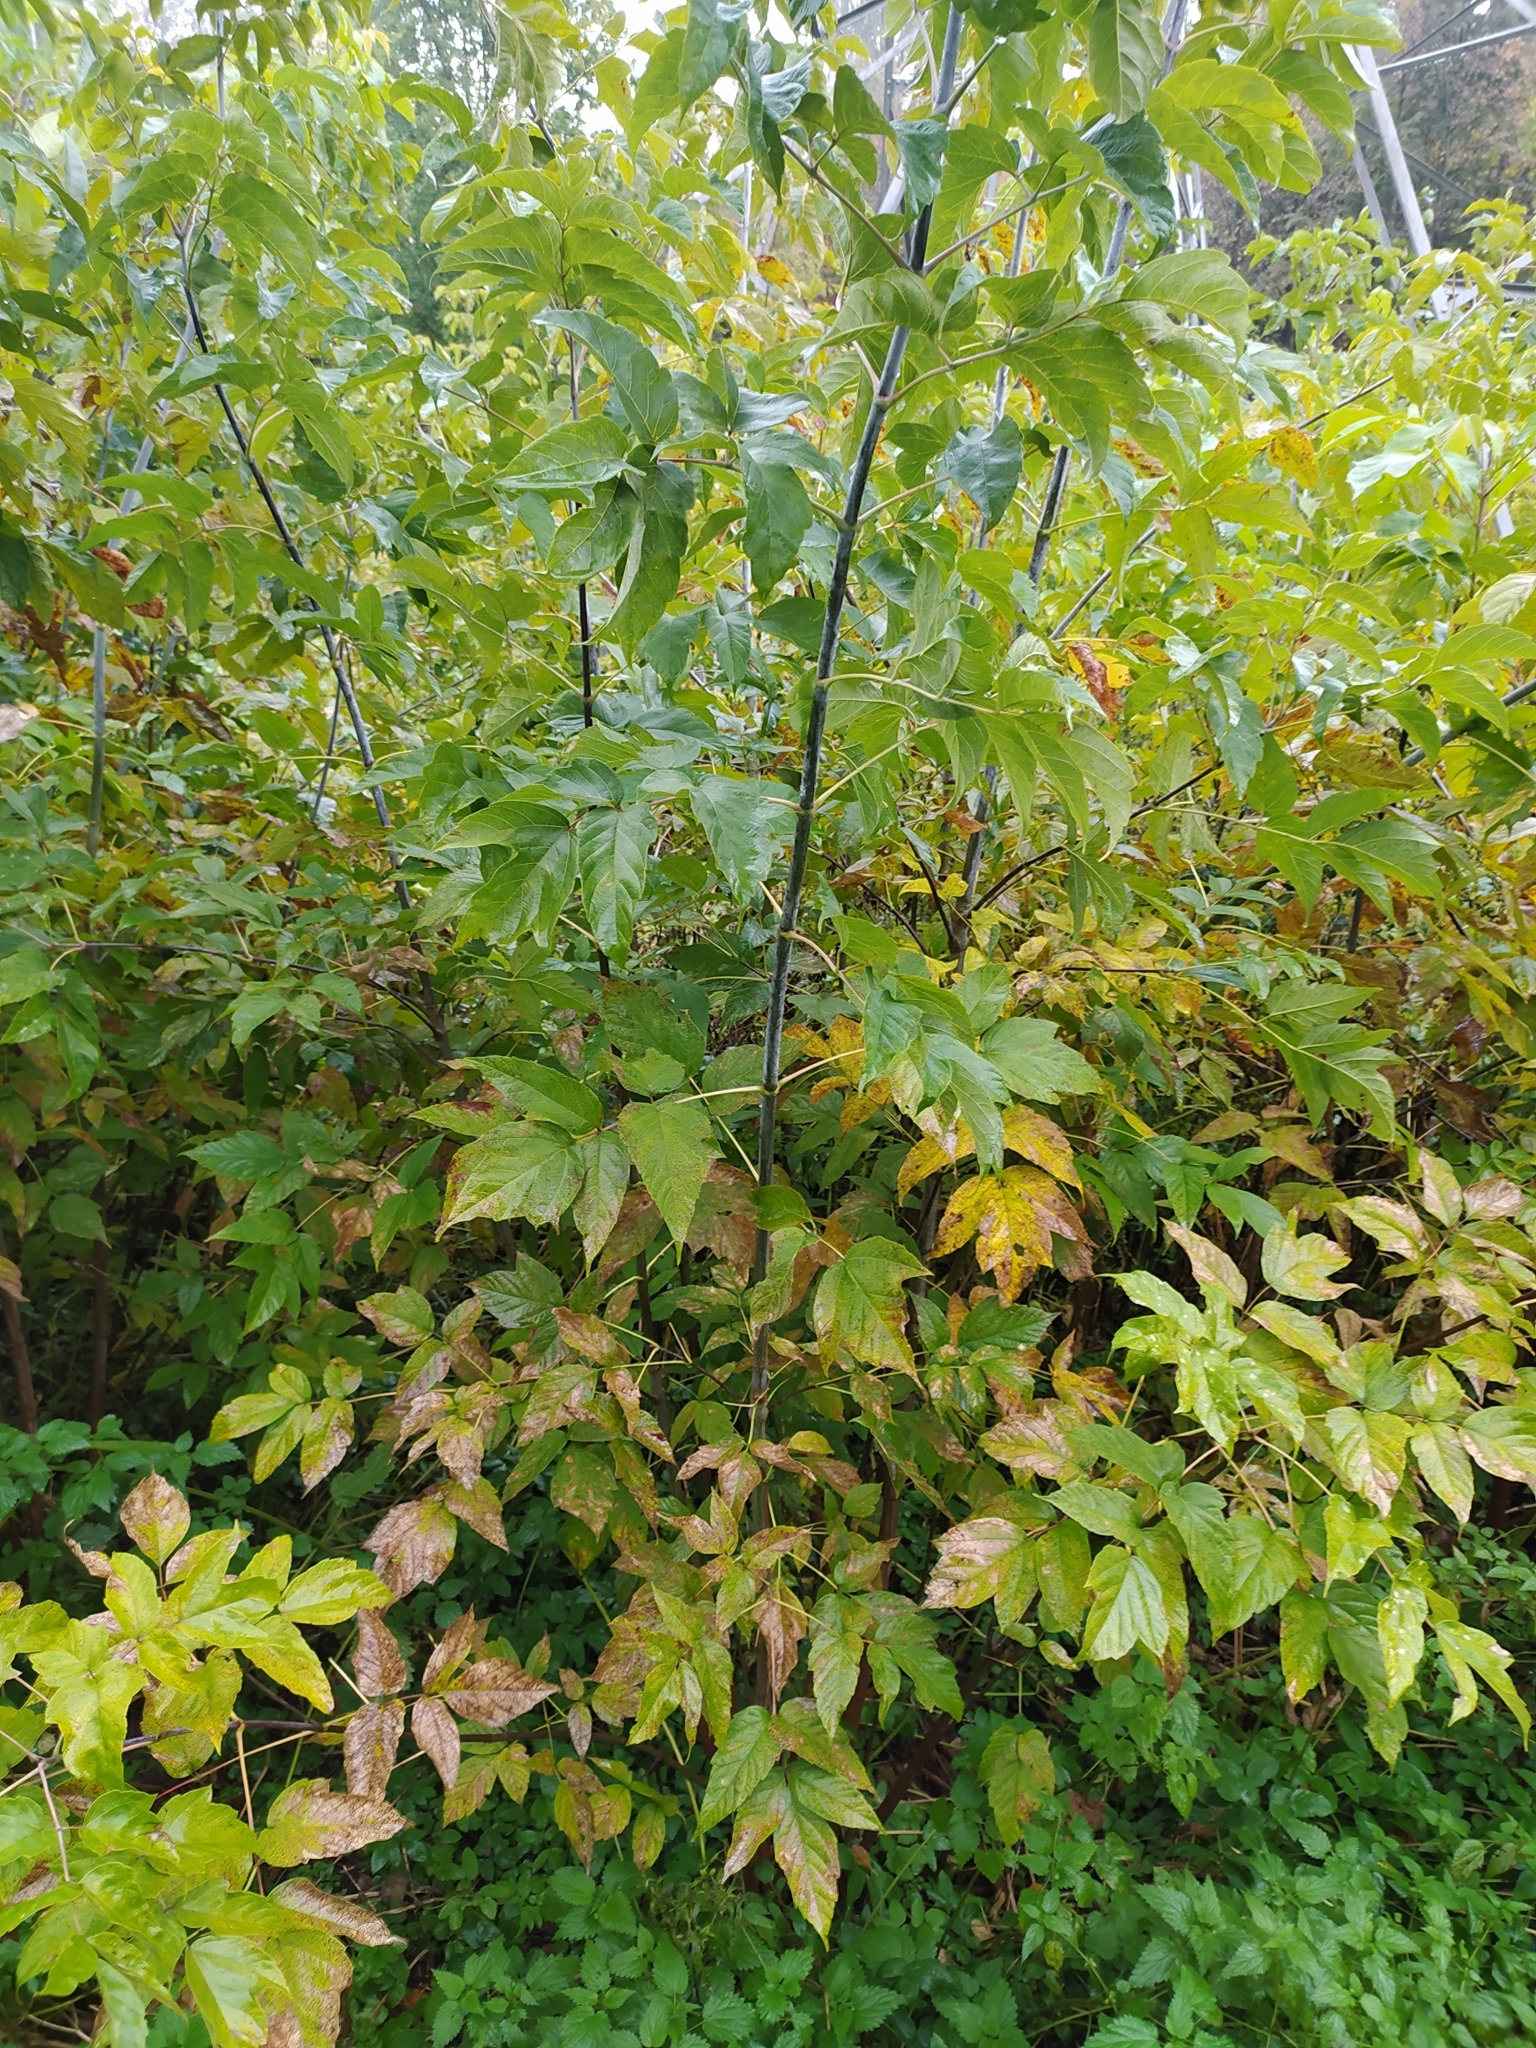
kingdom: Plantae
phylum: Tracheophyta
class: Magnoliopsida
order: Sapindales
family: Sapindaceae
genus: Acer
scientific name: Acer negundo
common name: Ashleaf maple
